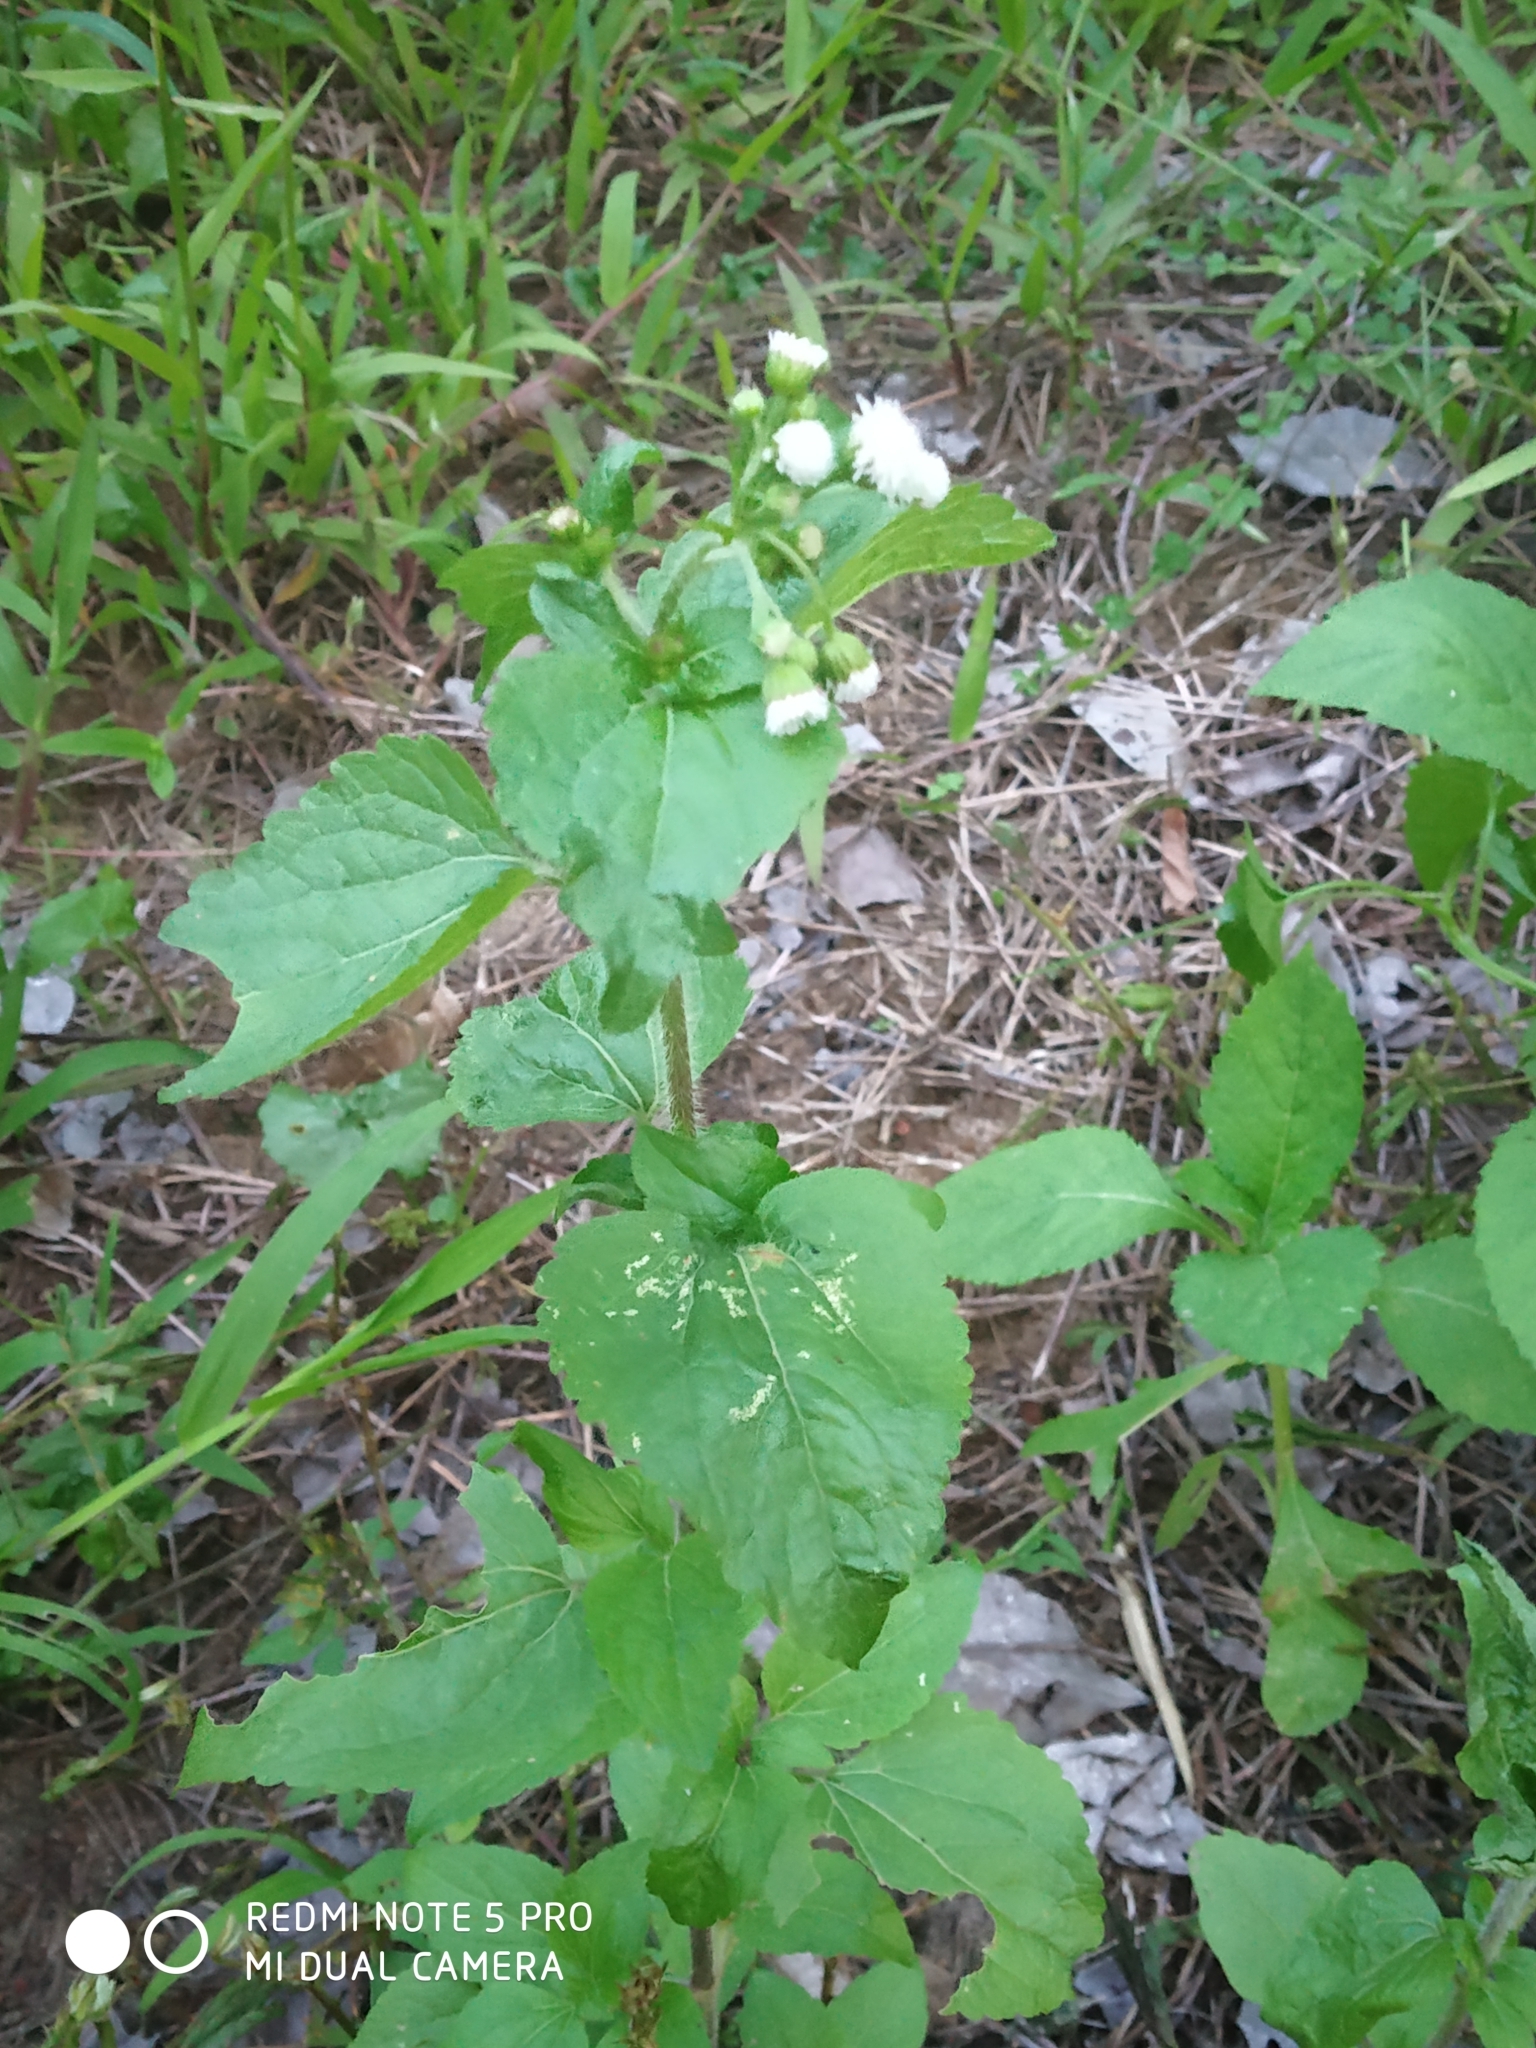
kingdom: Plantae
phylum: Tracheophyta
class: Magnoliopsida
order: Asterales
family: Asteraceae
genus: Ageratum
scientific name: Ageratum conyzoides
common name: Tropical whiteweed
